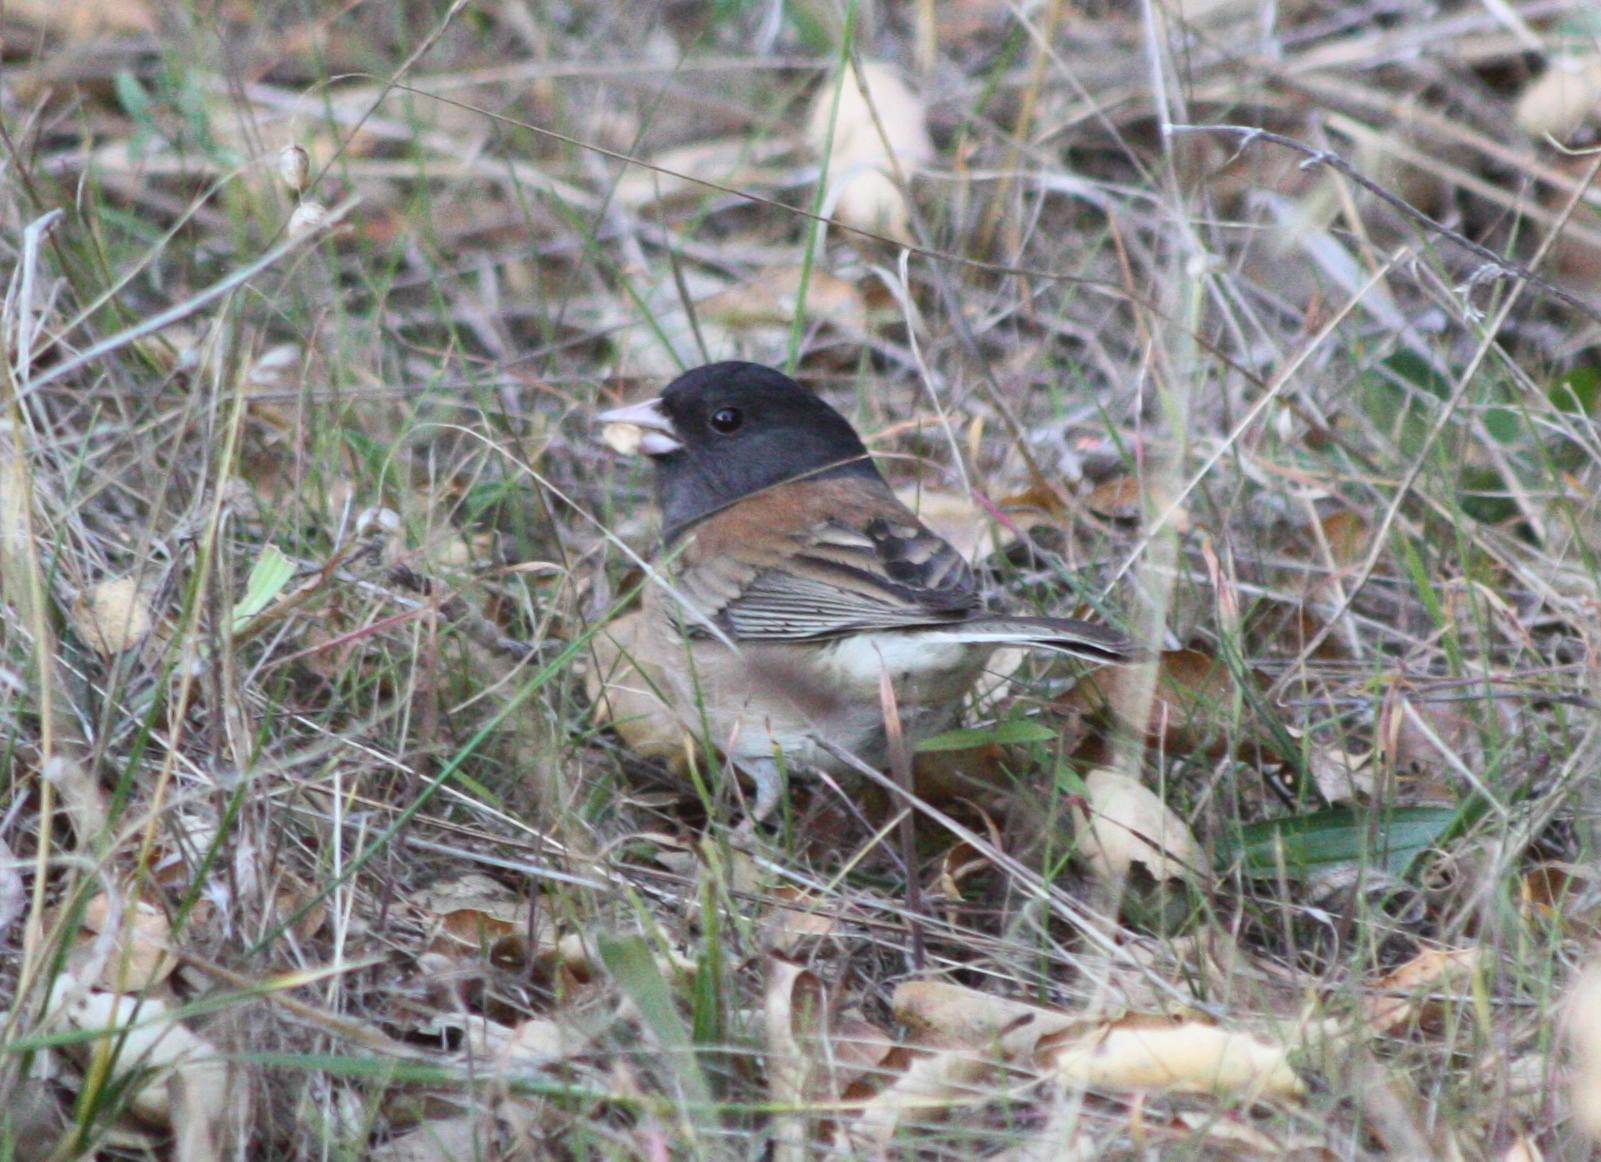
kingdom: Animalia
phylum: Chordata
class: Aves
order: Passeriformes
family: Passerellidae
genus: Junco
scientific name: Junco hyemalis
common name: Dark-eyed junco
